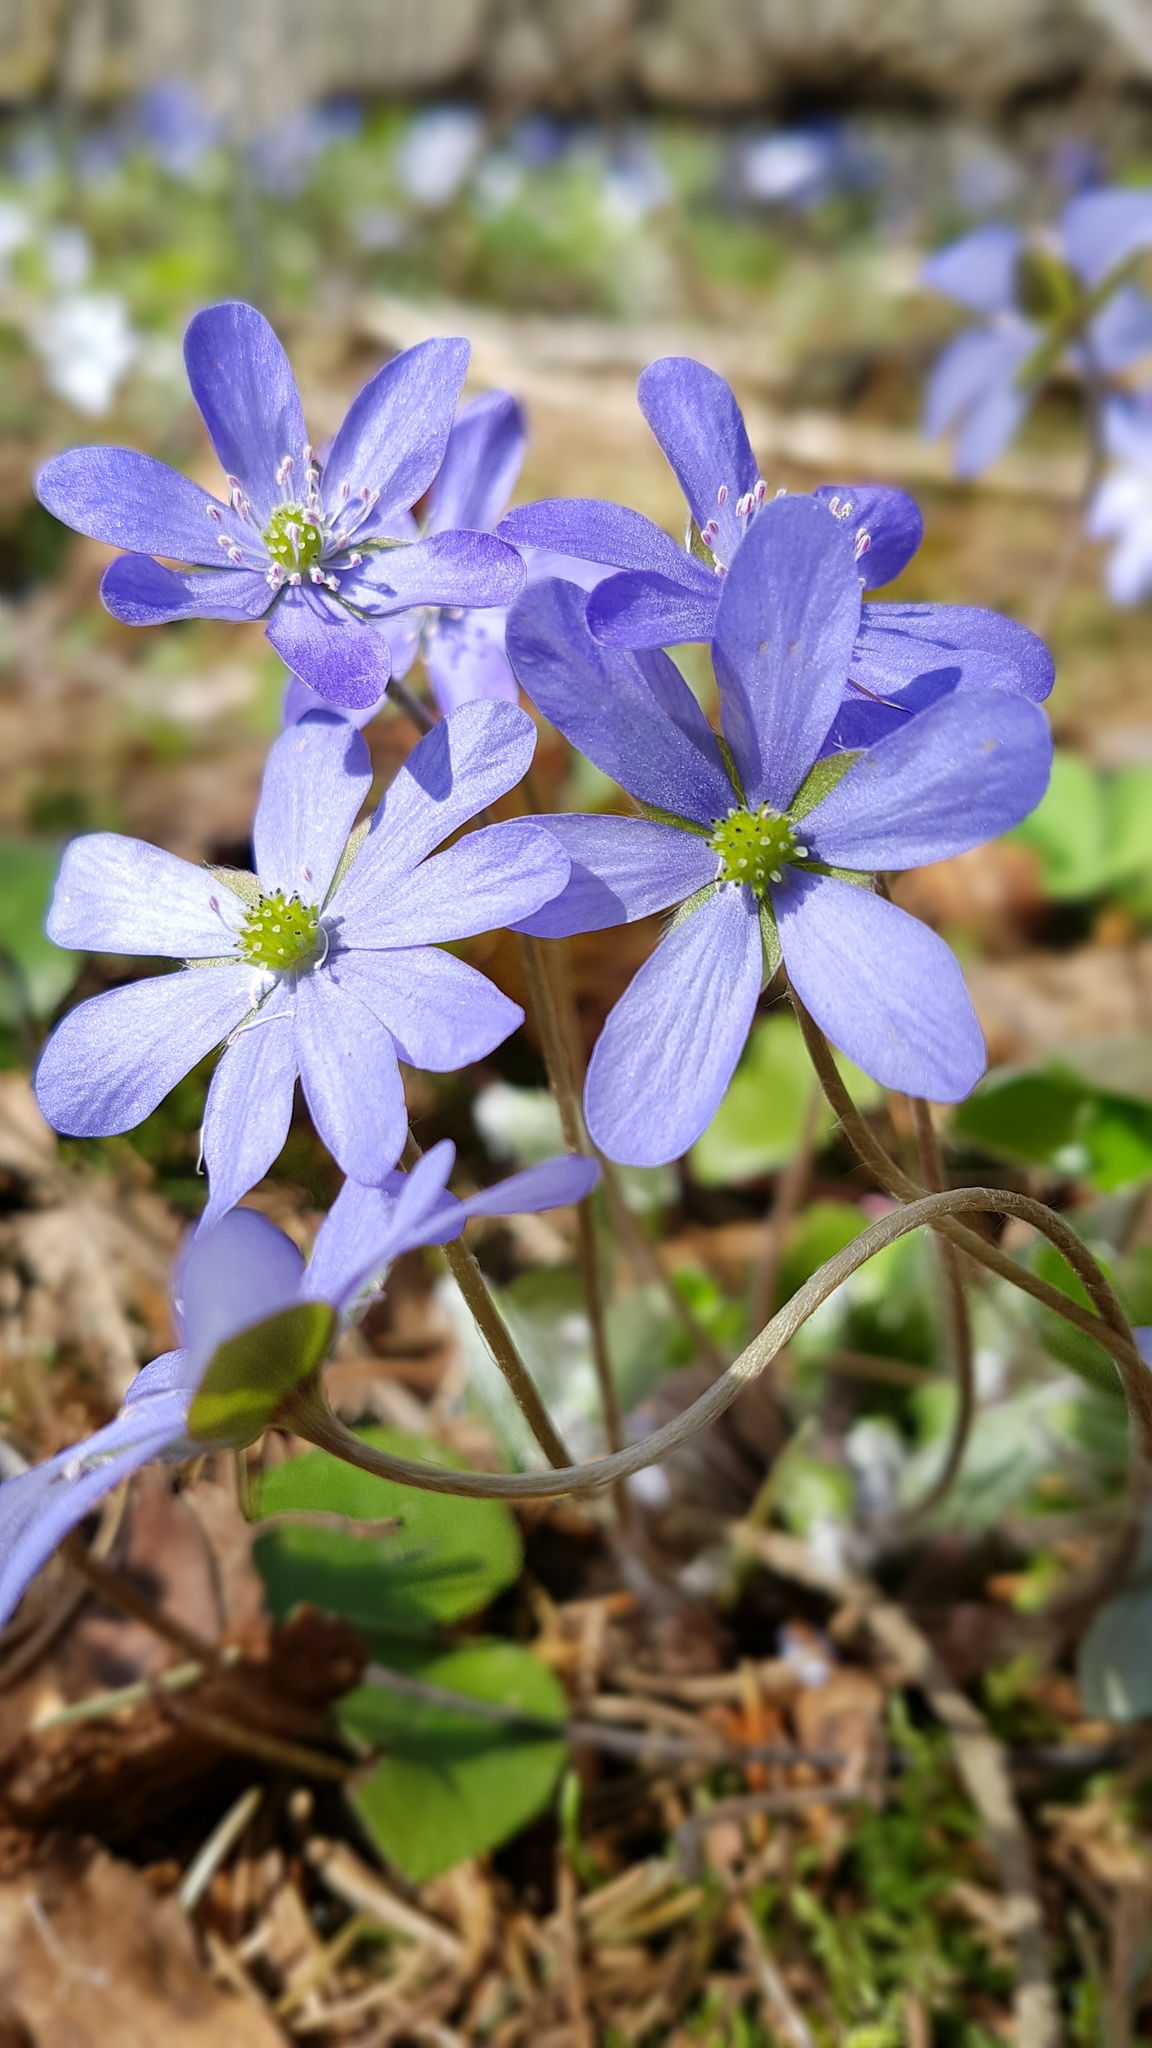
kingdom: Plantae
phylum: Tracheophyta
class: Magnoliopsida
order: Ranunculales
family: Ranunculaceae
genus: Hepatica
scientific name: Hepatica nobilis
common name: Liverleaf
